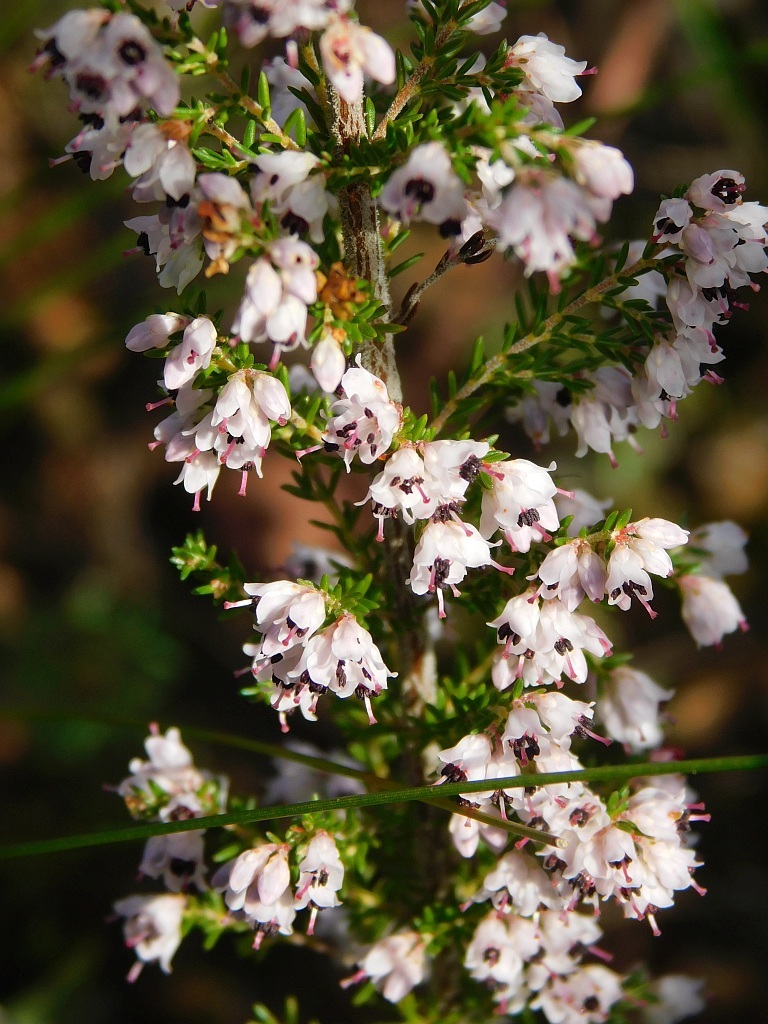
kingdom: Plantae
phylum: Tracheophyta
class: Magnoliopsida
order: Ericales
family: Ericaceae
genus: Erica
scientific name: Erica paniculata
